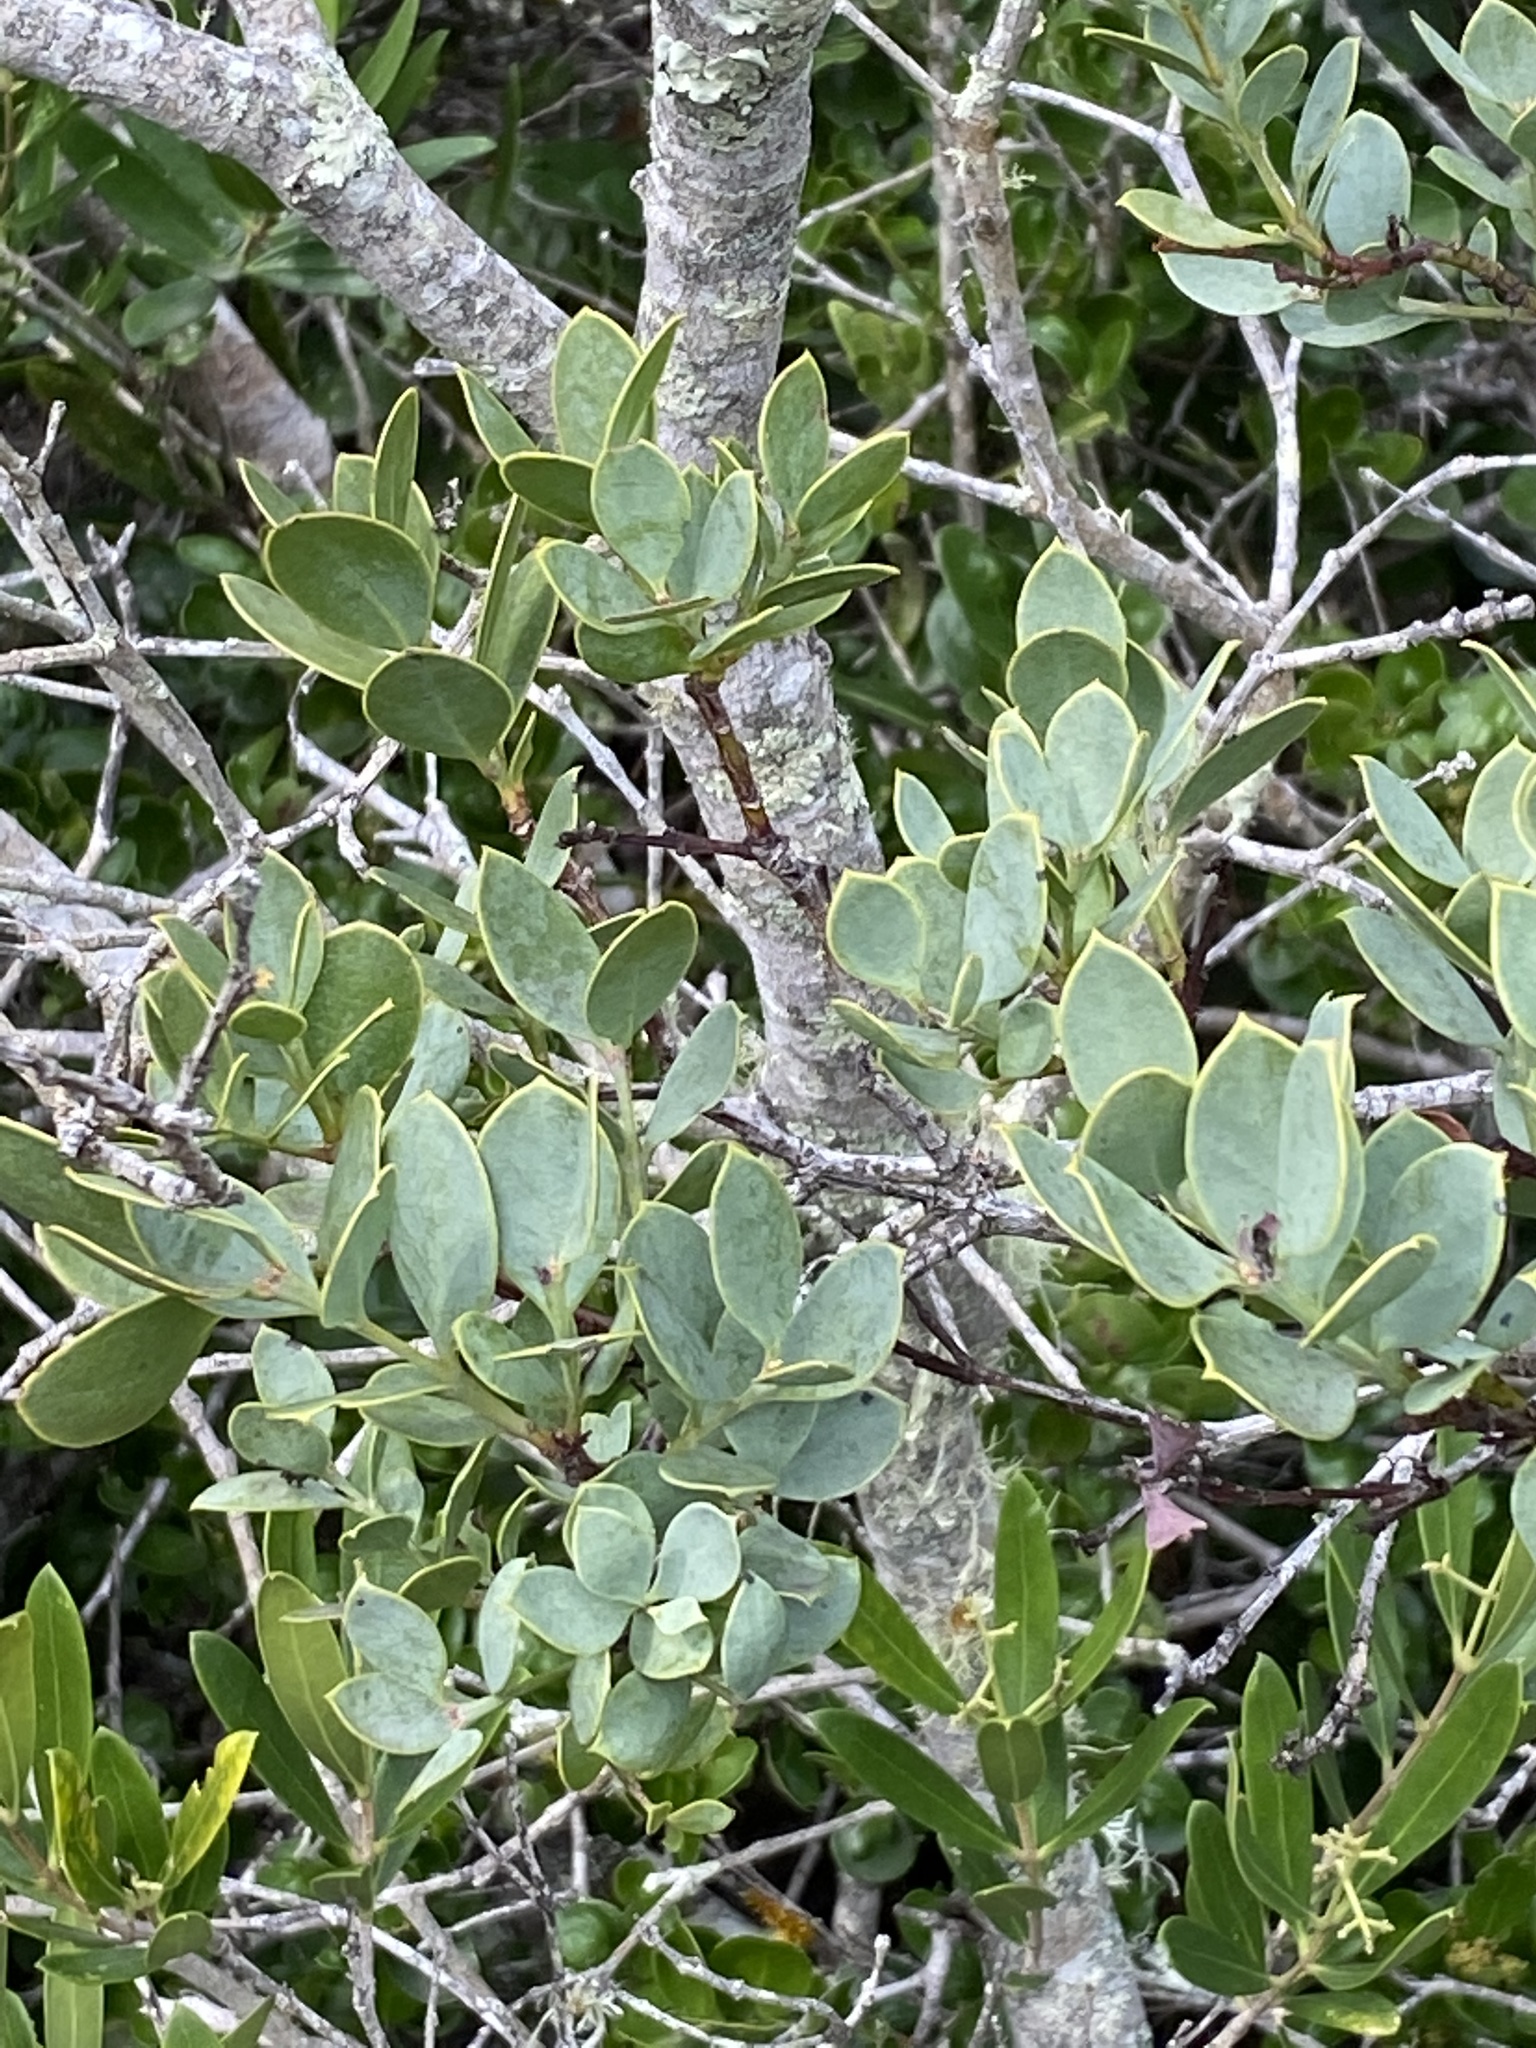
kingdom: Plantae
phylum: Tracheophyta
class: Magnoliopsida
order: Santalales
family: Santalaceae
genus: Osyris
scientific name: Osyris compressa
